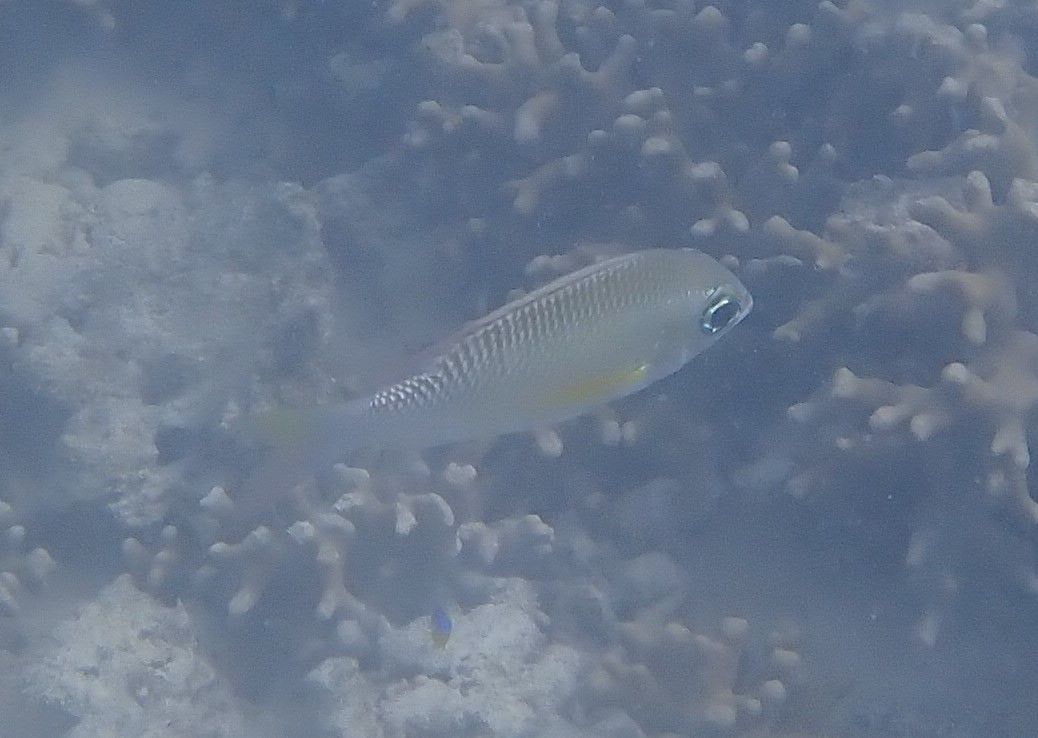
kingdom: Animalia
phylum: Chordata
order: Perciformes
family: Nemipteridae
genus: Scolopsis
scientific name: Scolopsis margaritifera
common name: Pearly monocle bream
